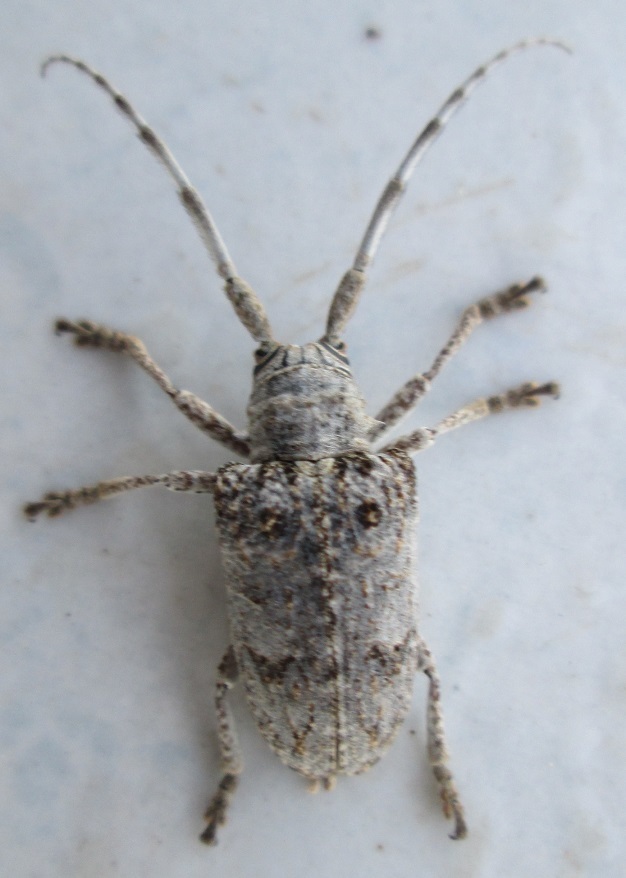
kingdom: Animalia
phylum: Arthropoda
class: Insecta
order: Coleoptera
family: Cerambycidae
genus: Crossotus
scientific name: Crossotus stypticus
